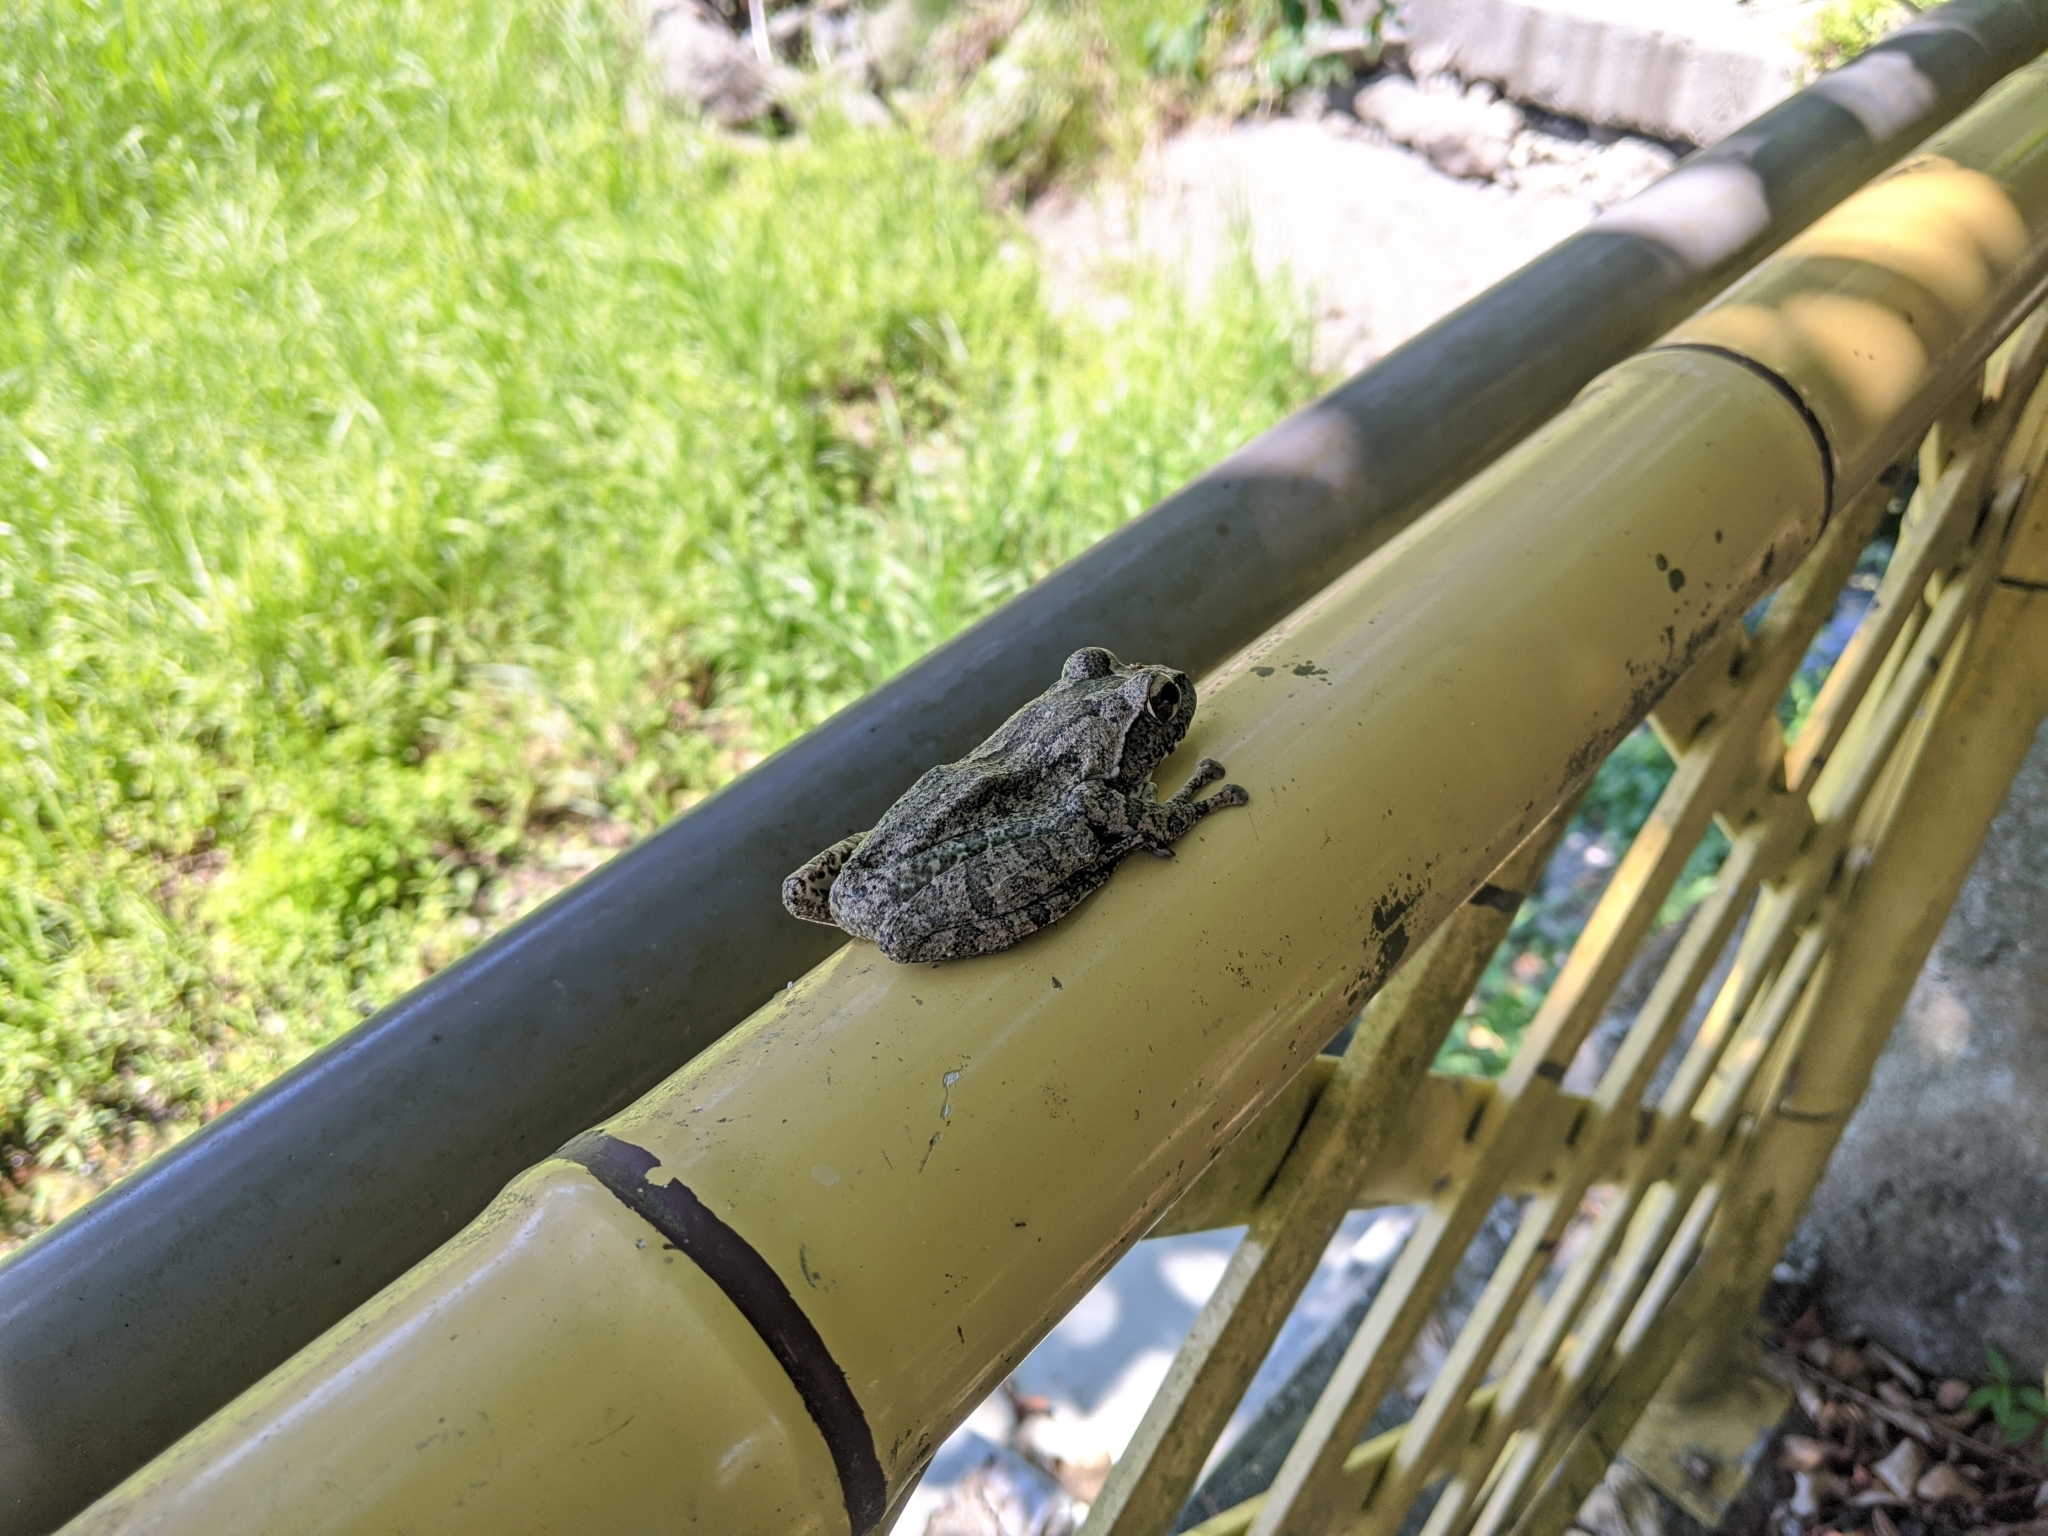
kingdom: Animalia
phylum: Chordata
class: Amphibia
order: Anura
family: Rhacophoridae
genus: Buergeria
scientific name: Buergeria robusta
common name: Brown treefrog
